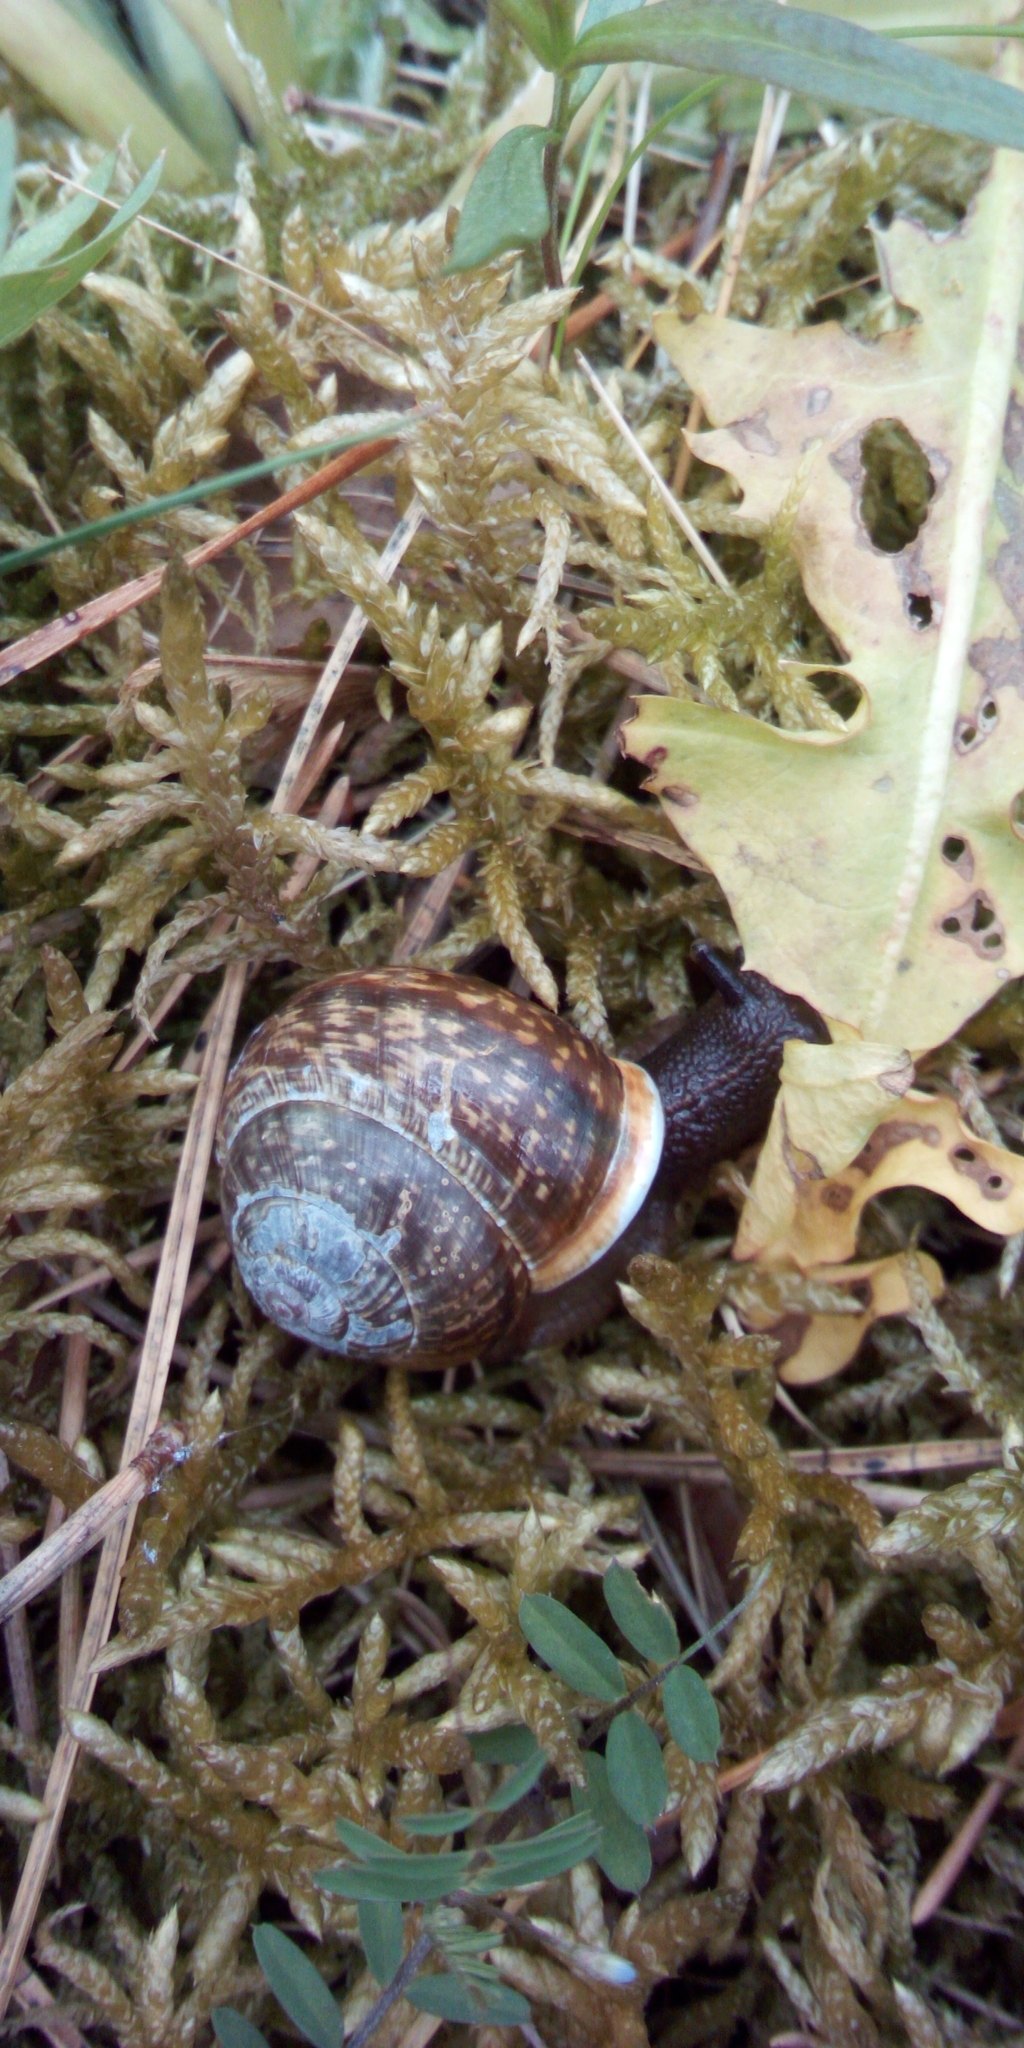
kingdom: Animalia
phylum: Mollusca
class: Gastropoda
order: Stylommatophora
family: Helicidae
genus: Arianta
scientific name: Arianta arbustorum
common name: Copse snail
